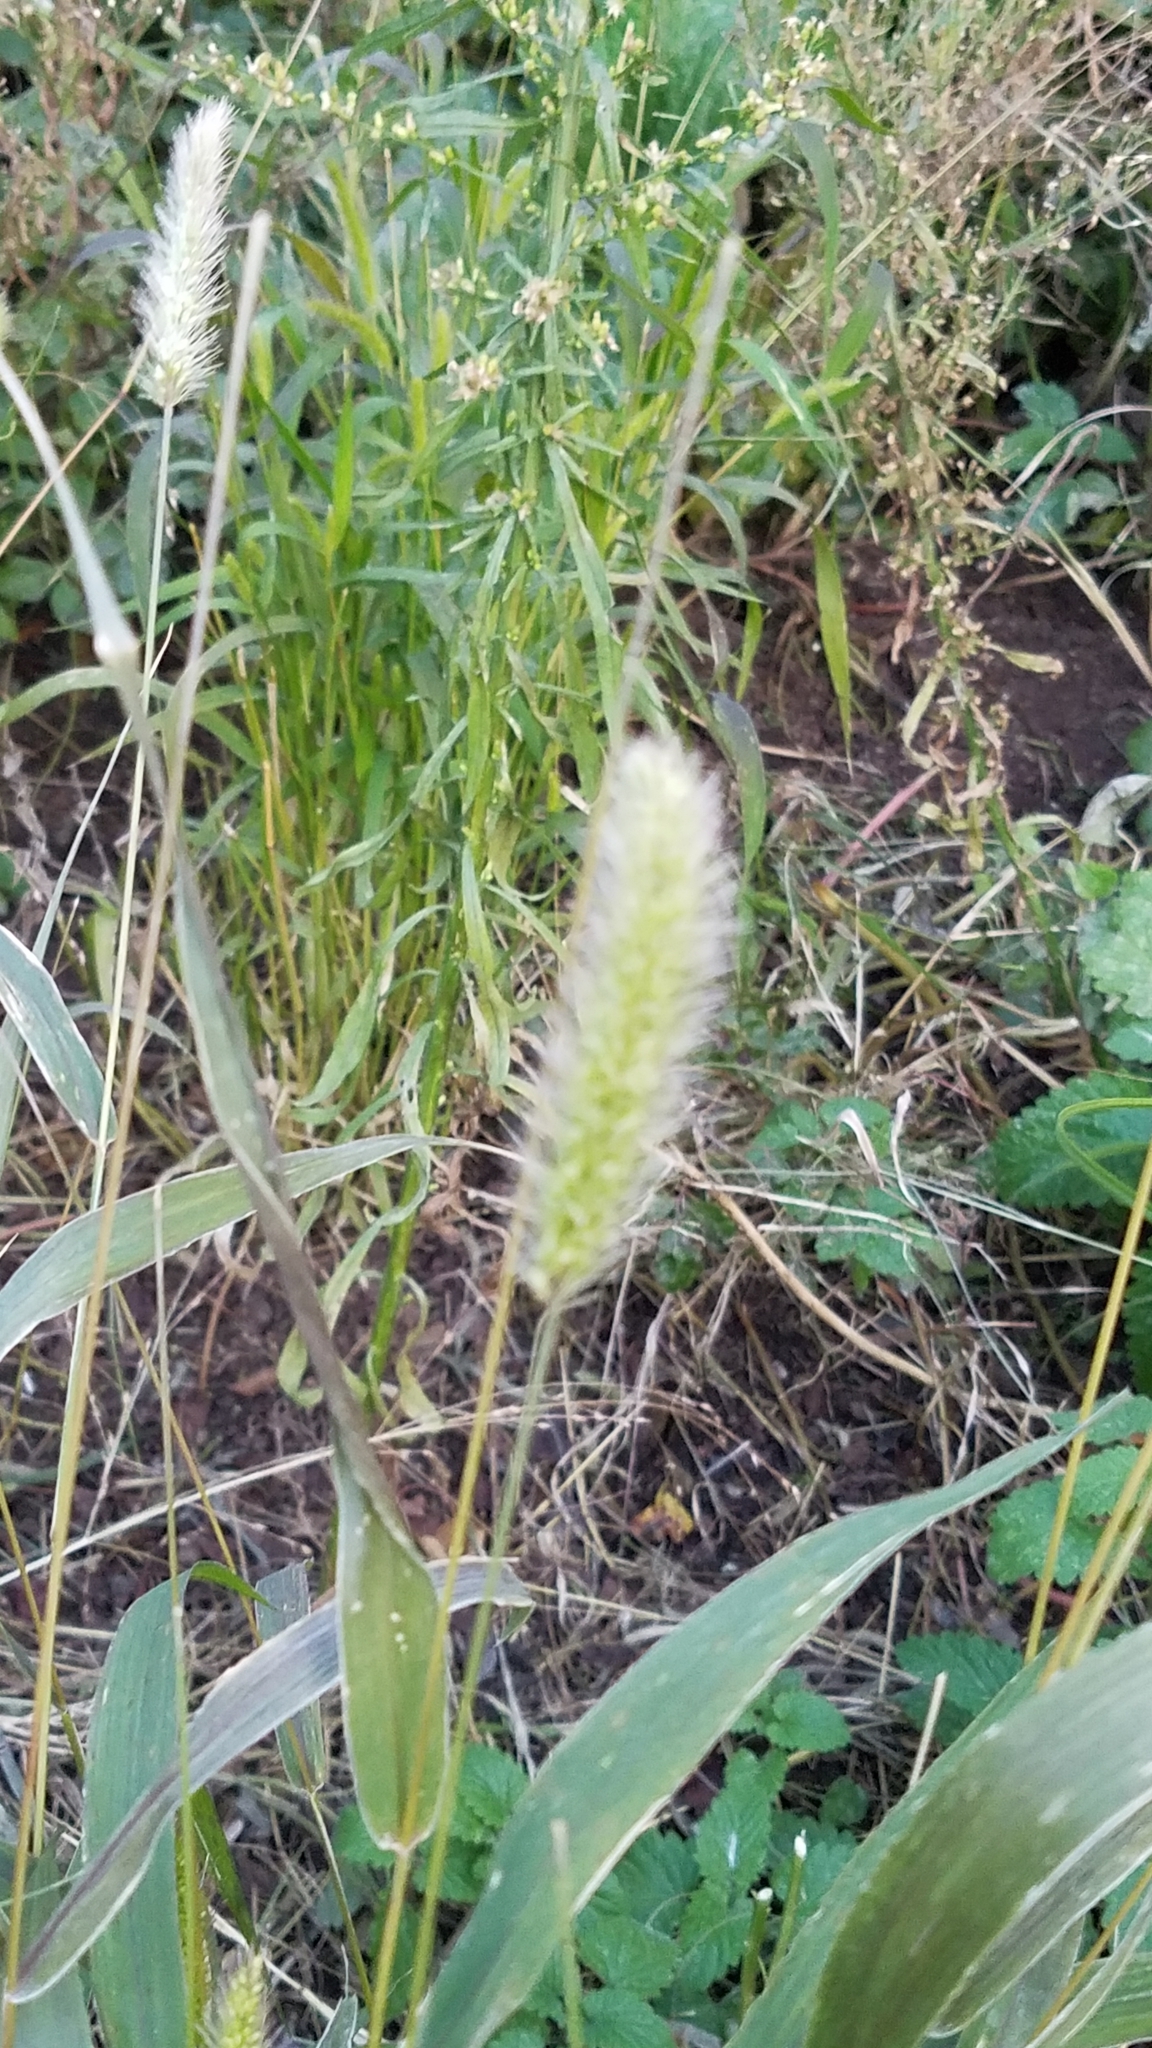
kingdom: Plantae
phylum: Tracheophyta
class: Liliopsida
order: Poales
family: Poaceae
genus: Setaria
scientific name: Setaria viridis
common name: Green bristlegrass
